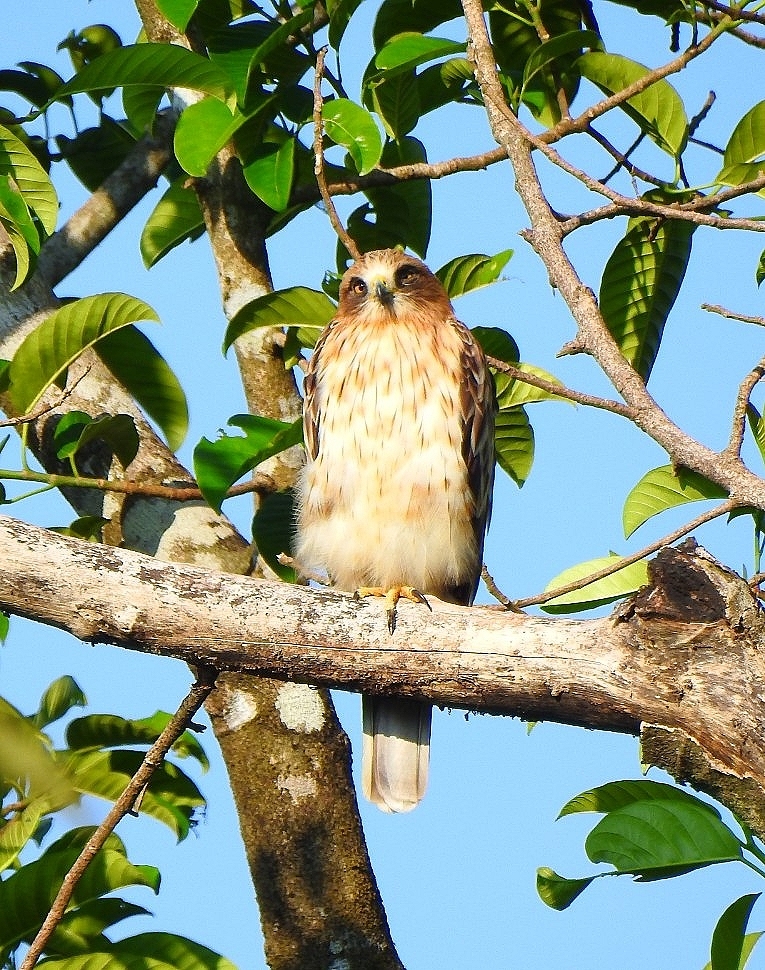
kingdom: Animalia
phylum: Chordata
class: Aves
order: Accipitriformes
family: Accipitridae
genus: Hieraaetus
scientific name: Hieraaetus pennatus
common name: Booted eagle
